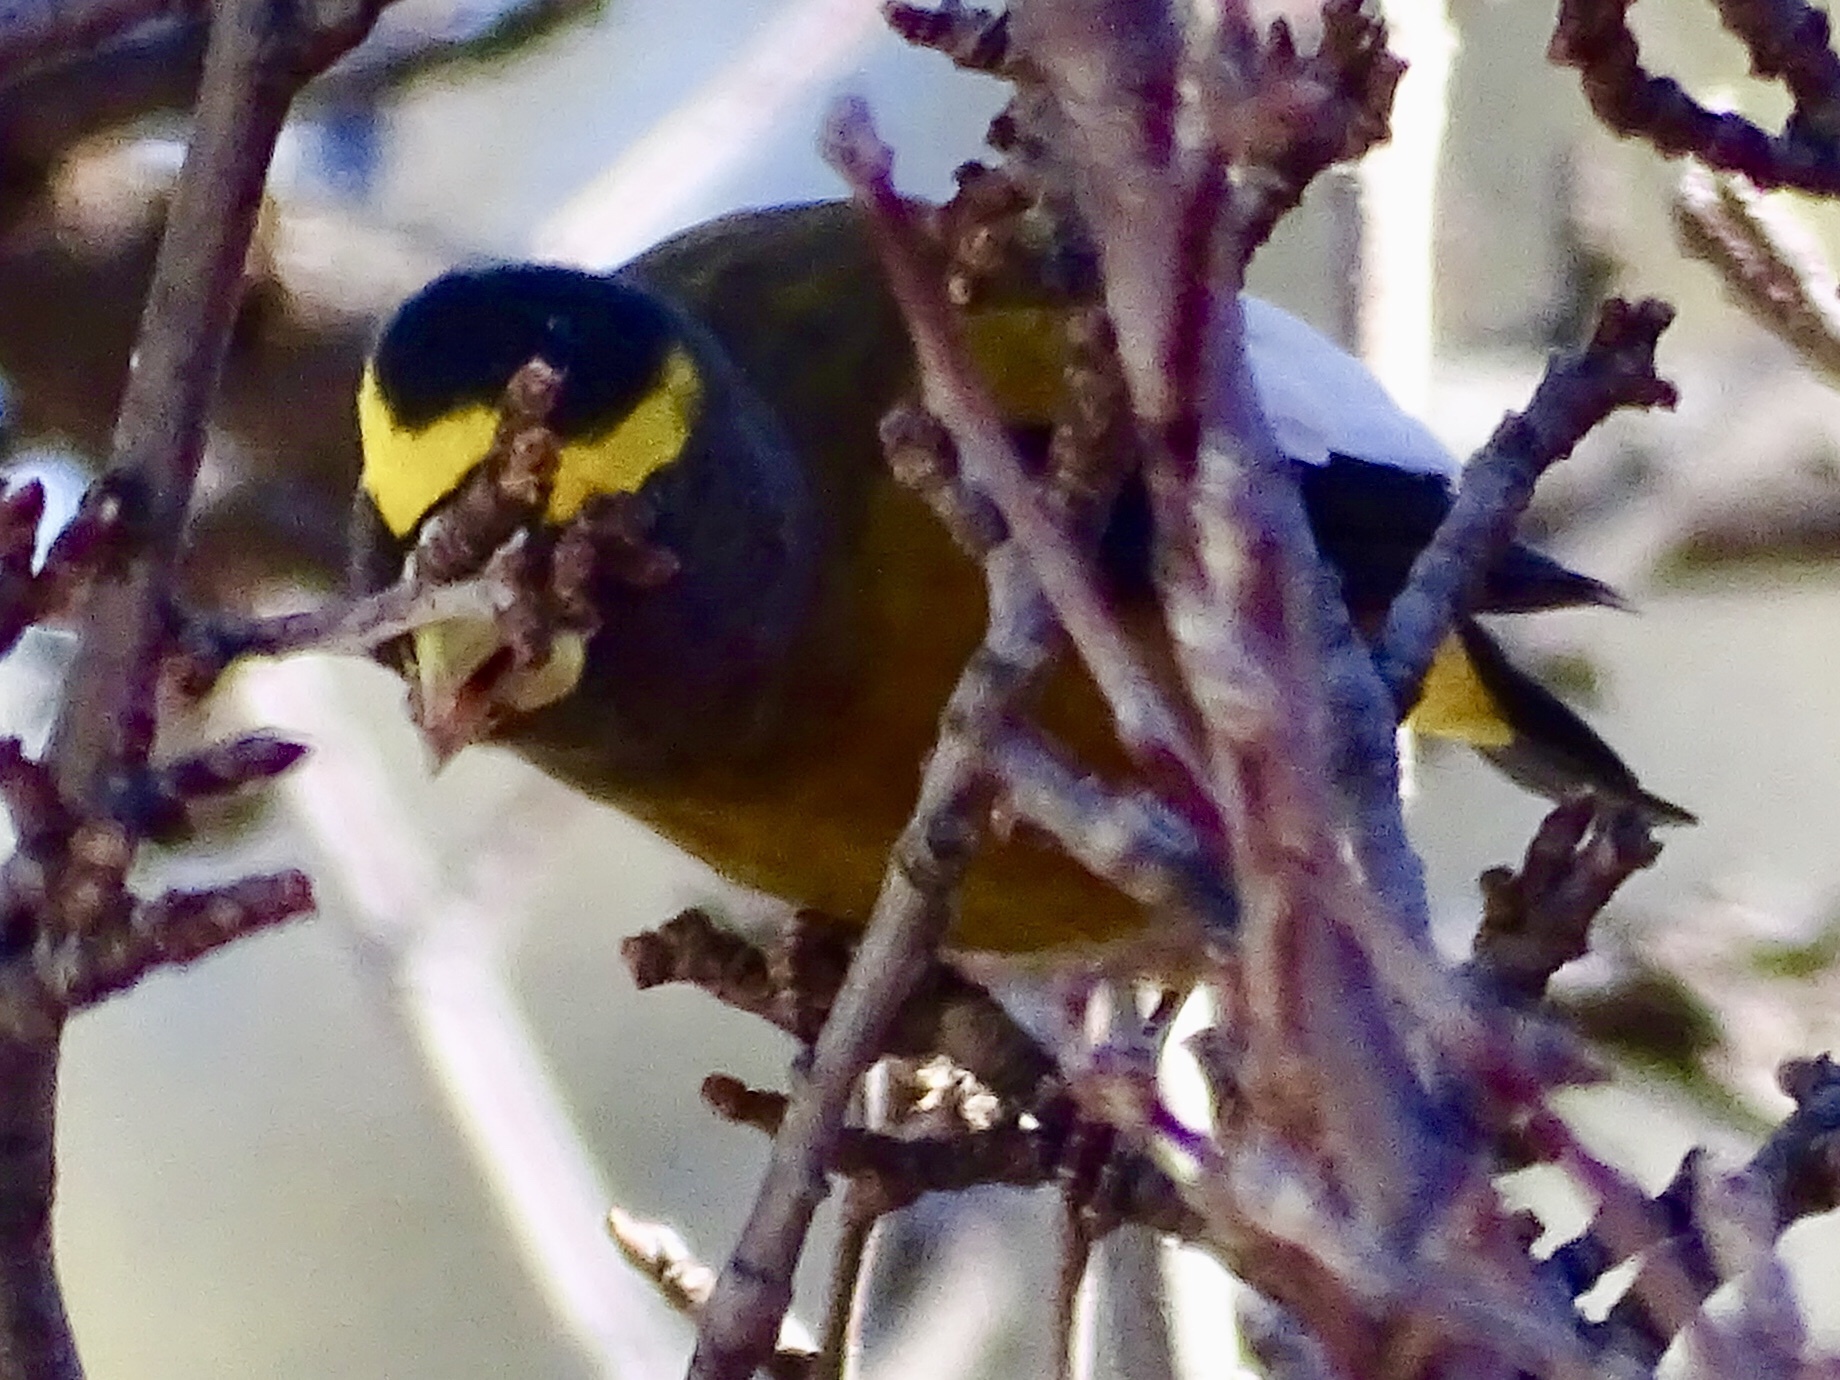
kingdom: Animalia
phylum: Chordata
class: Aves
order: Passeriformes
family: Fringillidae
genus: Hesperiphona
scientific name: Hesperiphona vespertina
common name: Evening grosbeak
